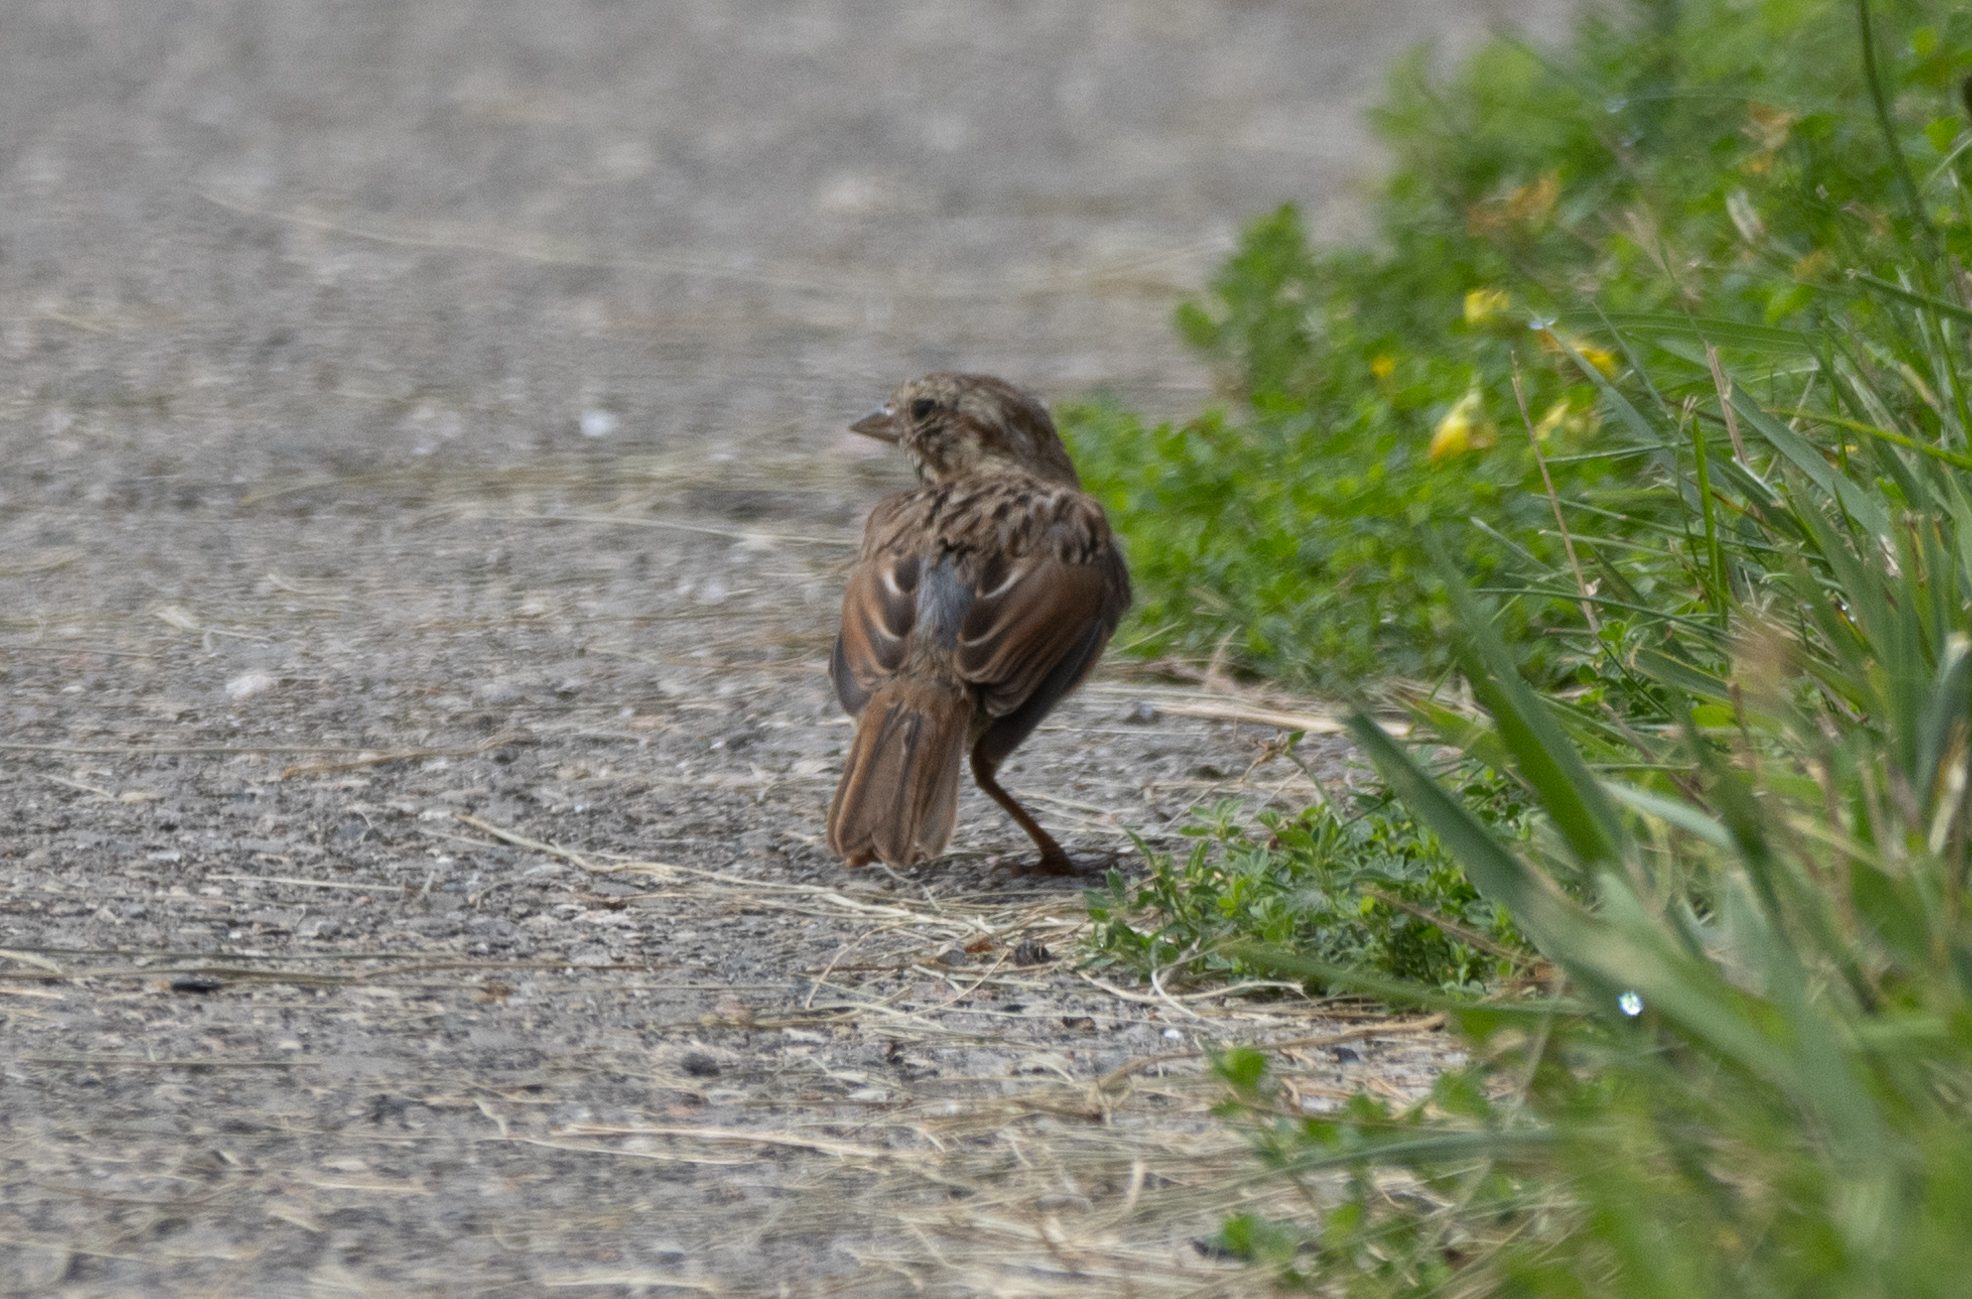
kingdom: Animalia
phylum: Chordata
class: Aves
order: Passeriformes
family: Passerellidae
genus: Melospiza
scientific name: Melospiza melodia
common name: Song sparrow
